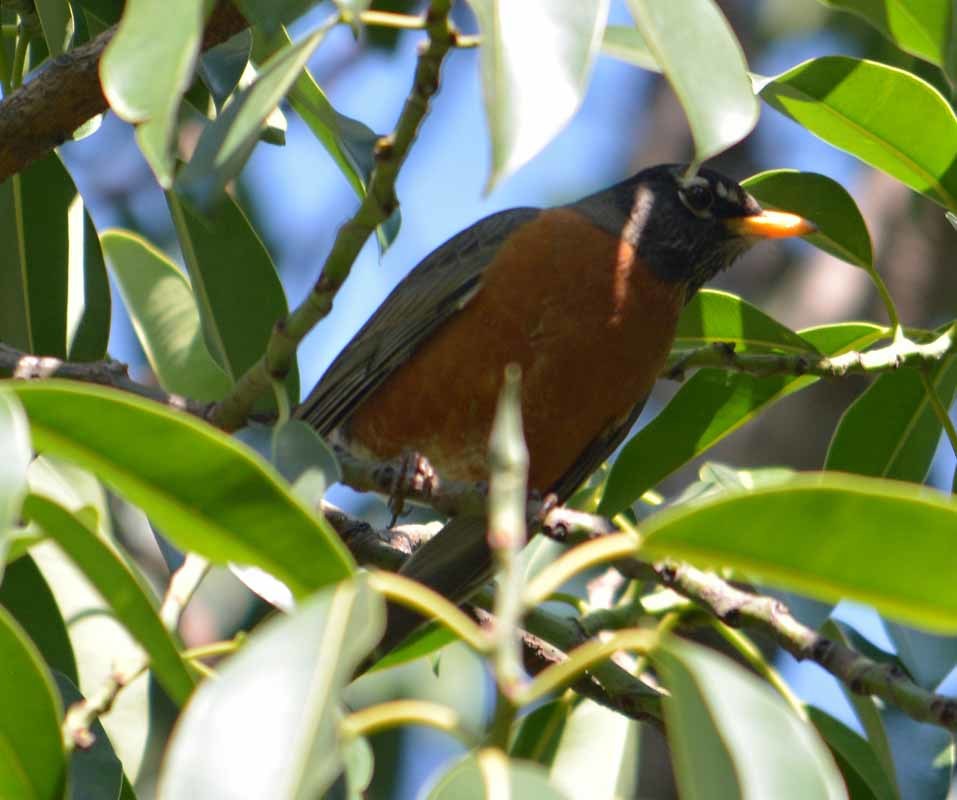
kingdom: Animalia
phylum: Chordata
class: Aves
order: Passeriformes
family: Turdidae
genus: Turdus
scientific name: Turdus migratorius
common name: American robin
